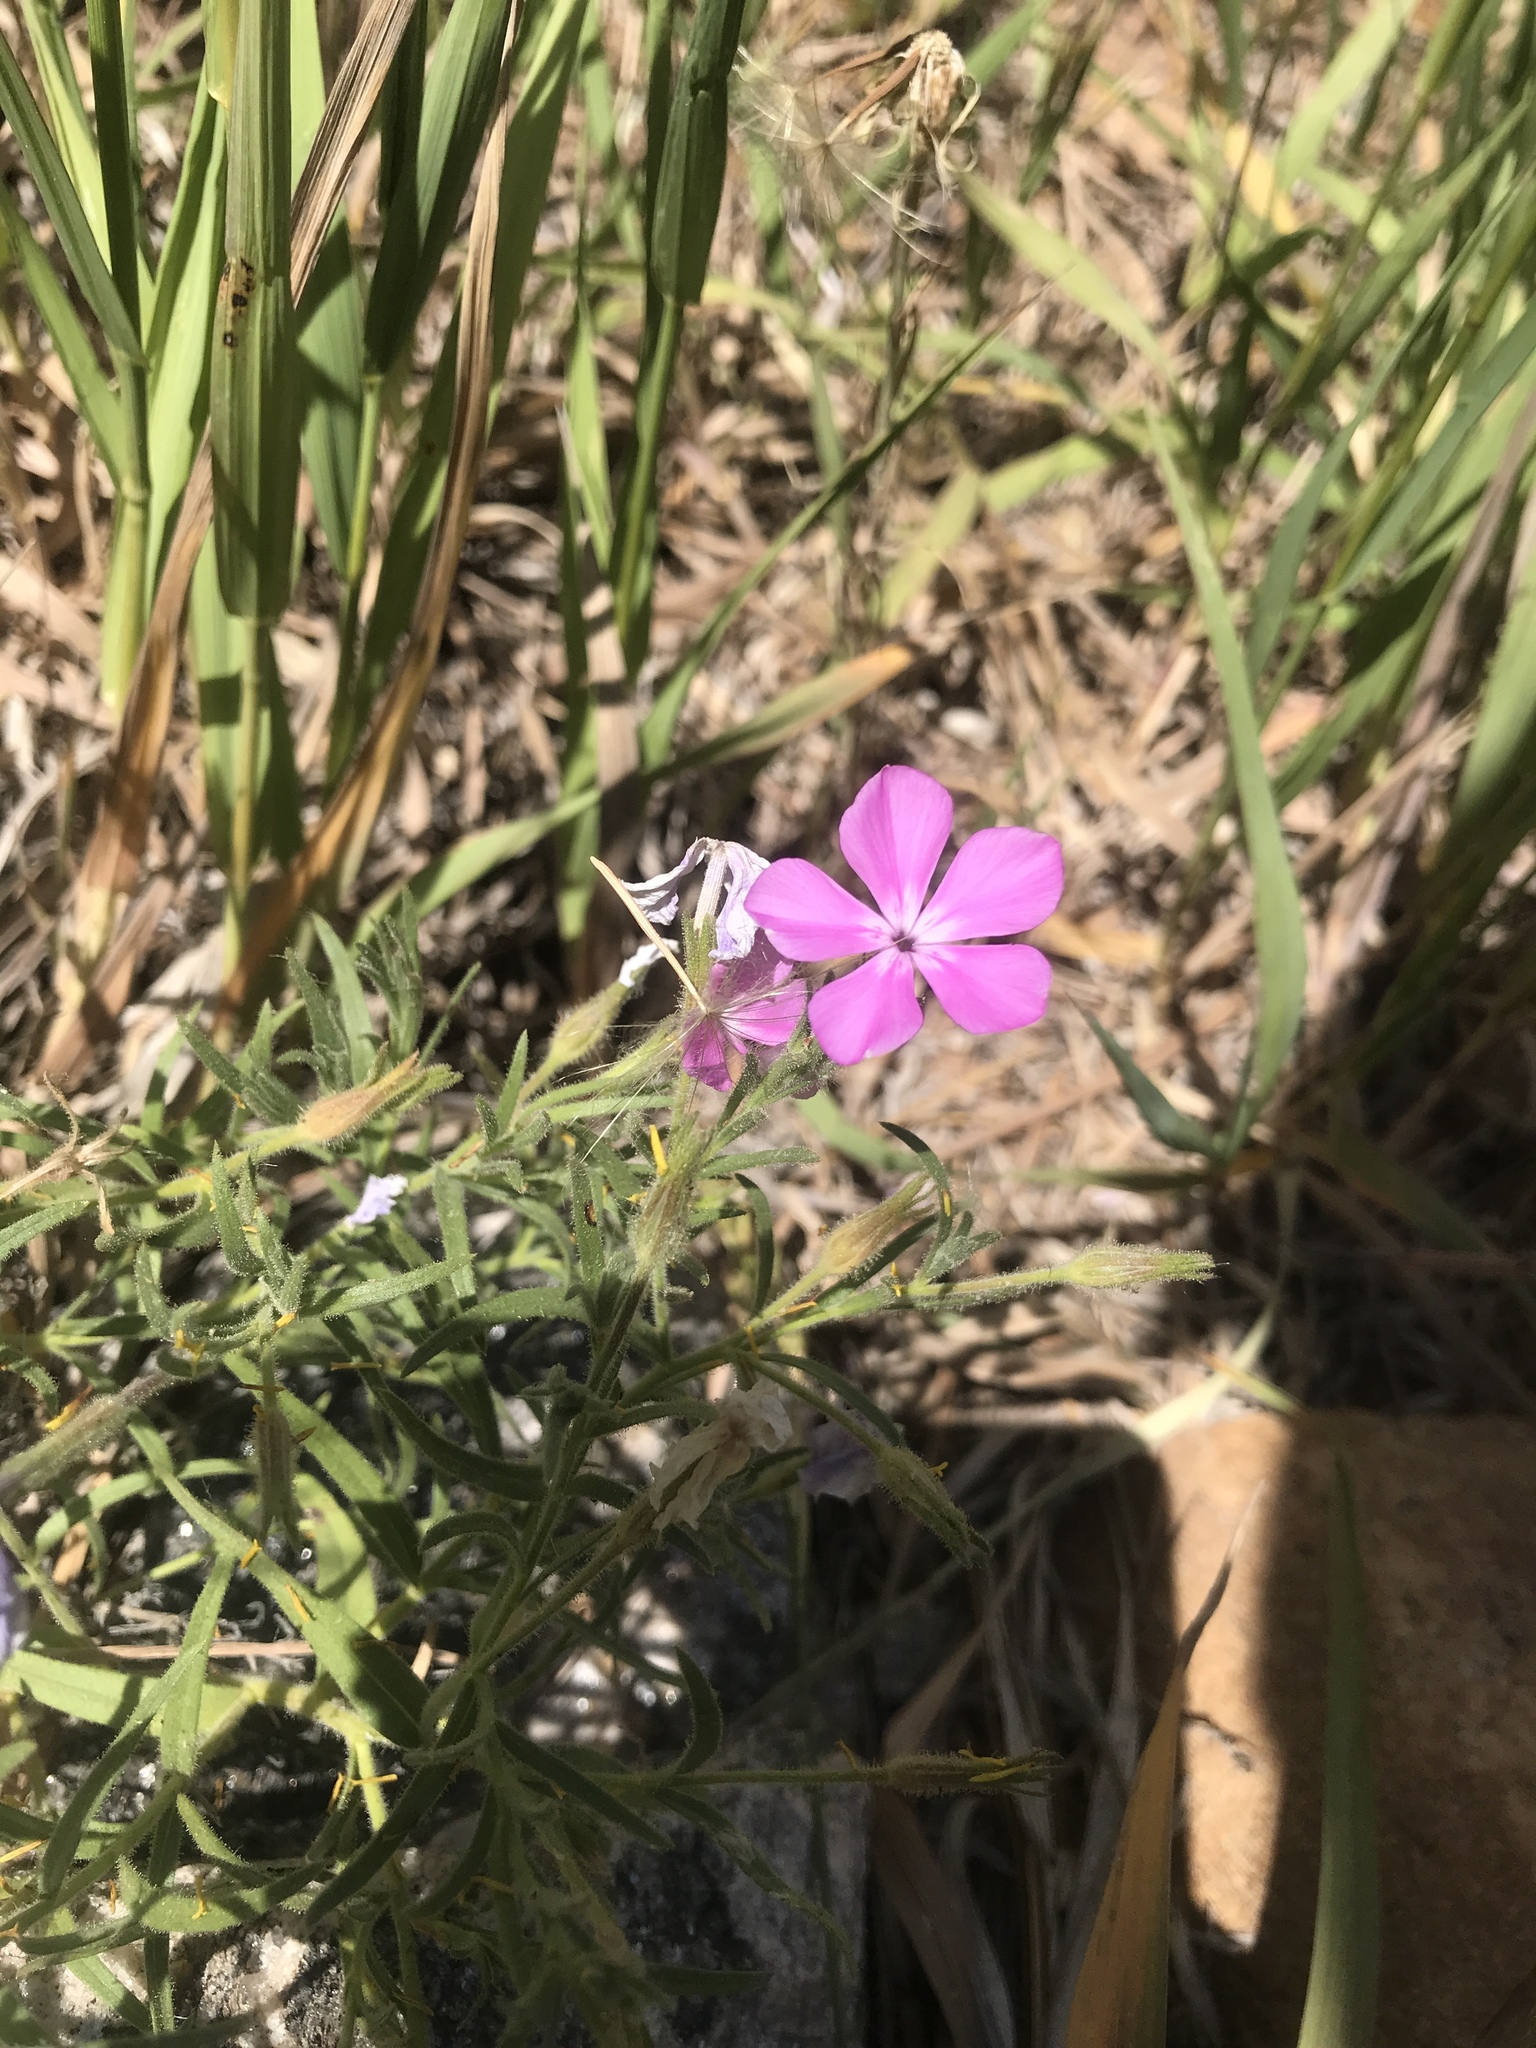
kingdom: Plantae
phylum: Tracheophyta
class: Magnoliopsida
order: Ericales
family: Polemoniaceae
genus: Phlox
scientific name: Phlox nana
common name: Santa fe phlox
